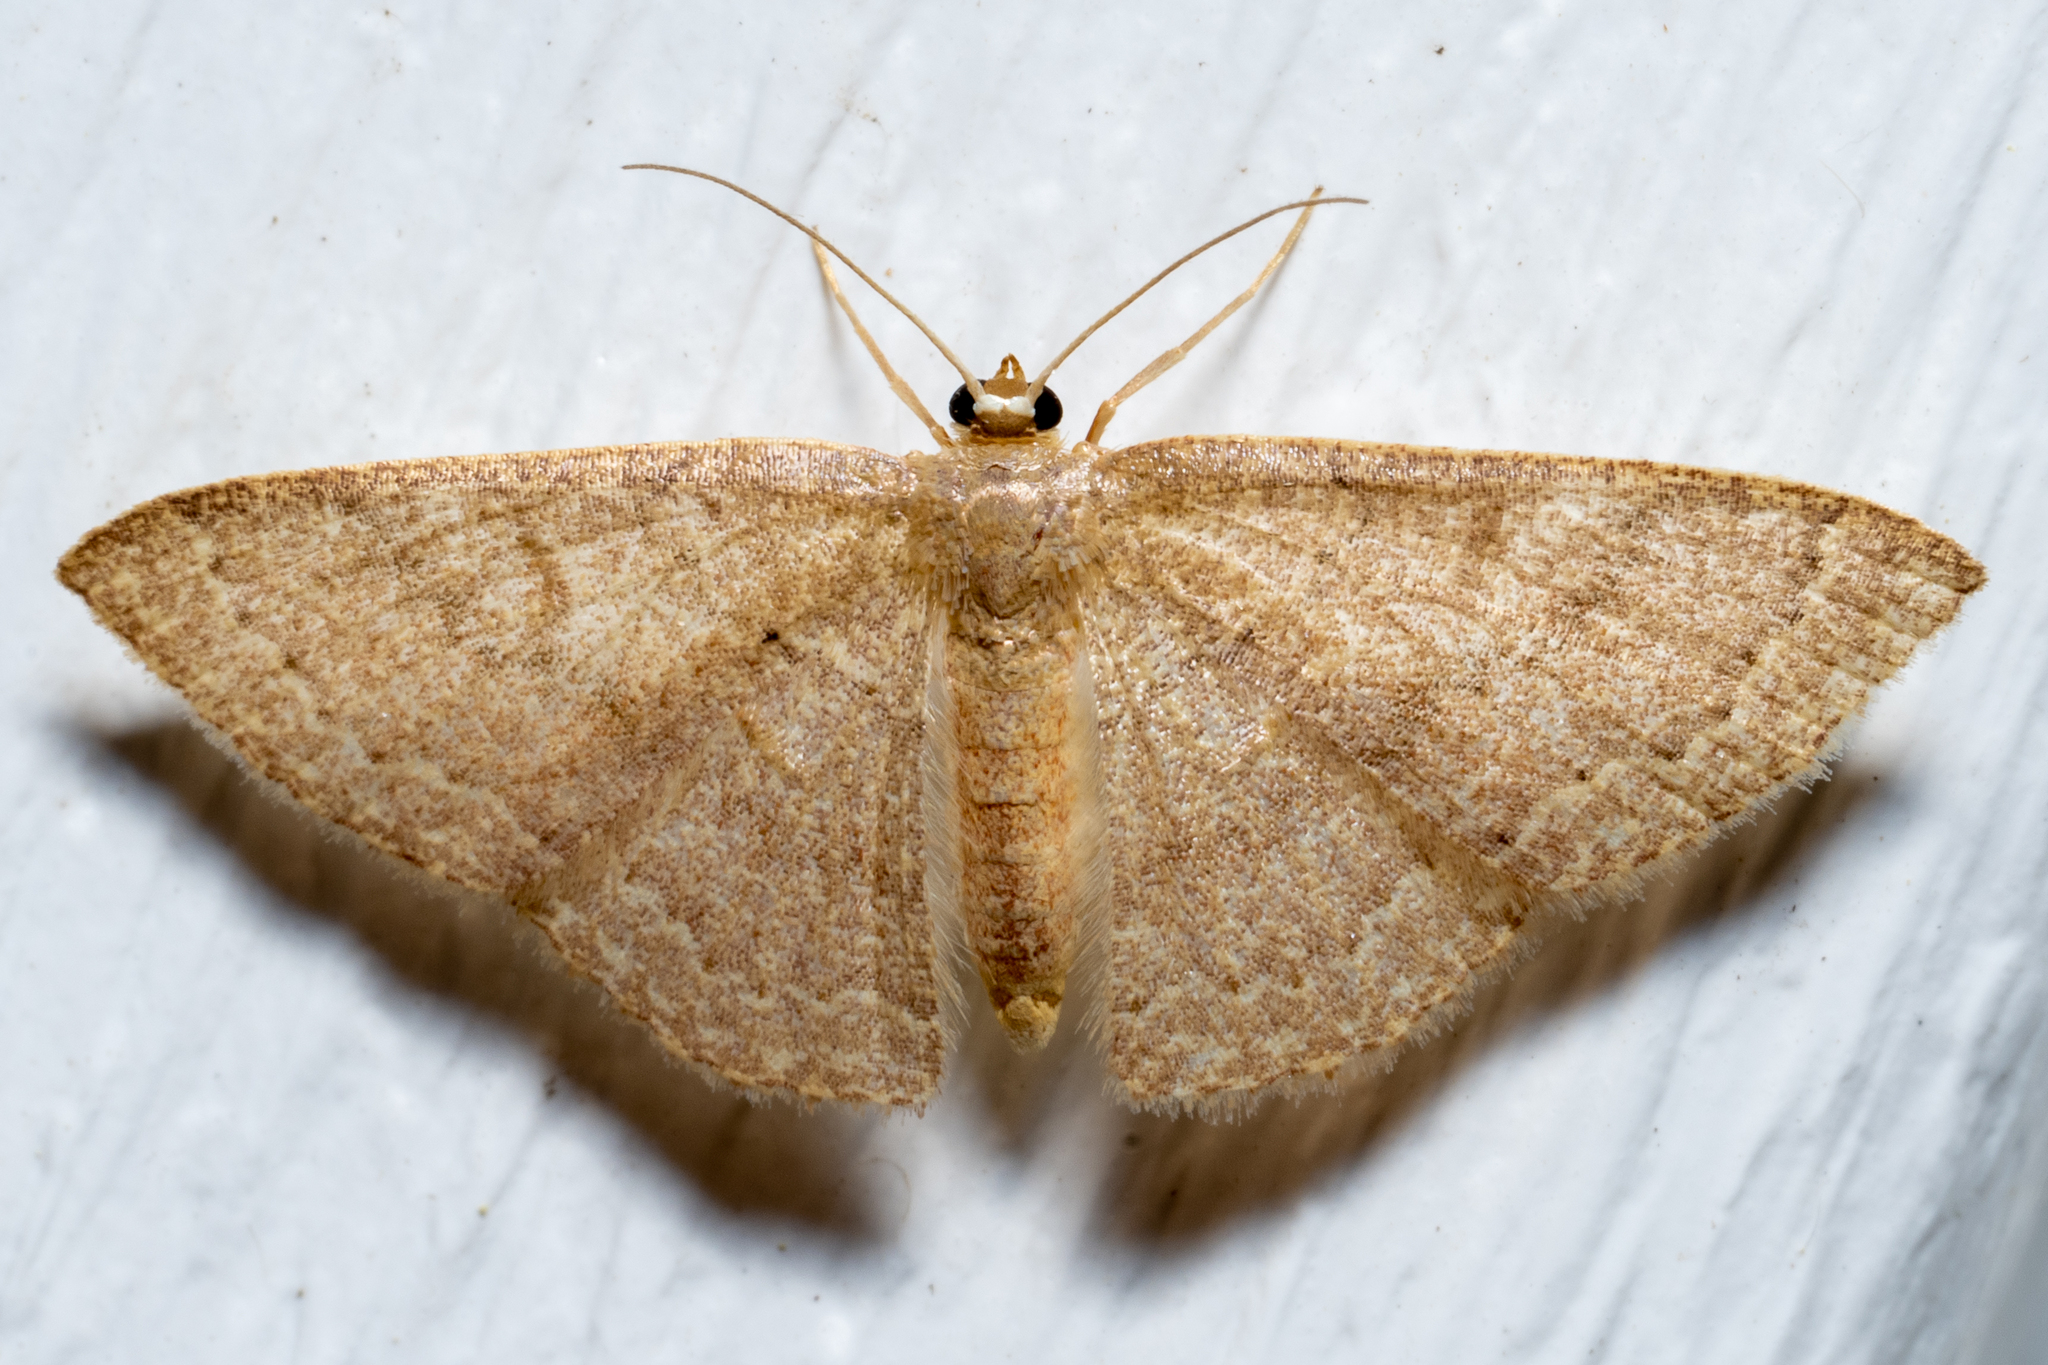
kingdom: Animalia
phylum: Arthropoda
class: Insecta
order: Lepidoptera
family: Geometridae
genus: Pleuroprucha
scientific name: Pleuroprucha insulsaria
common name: Common tan wave
